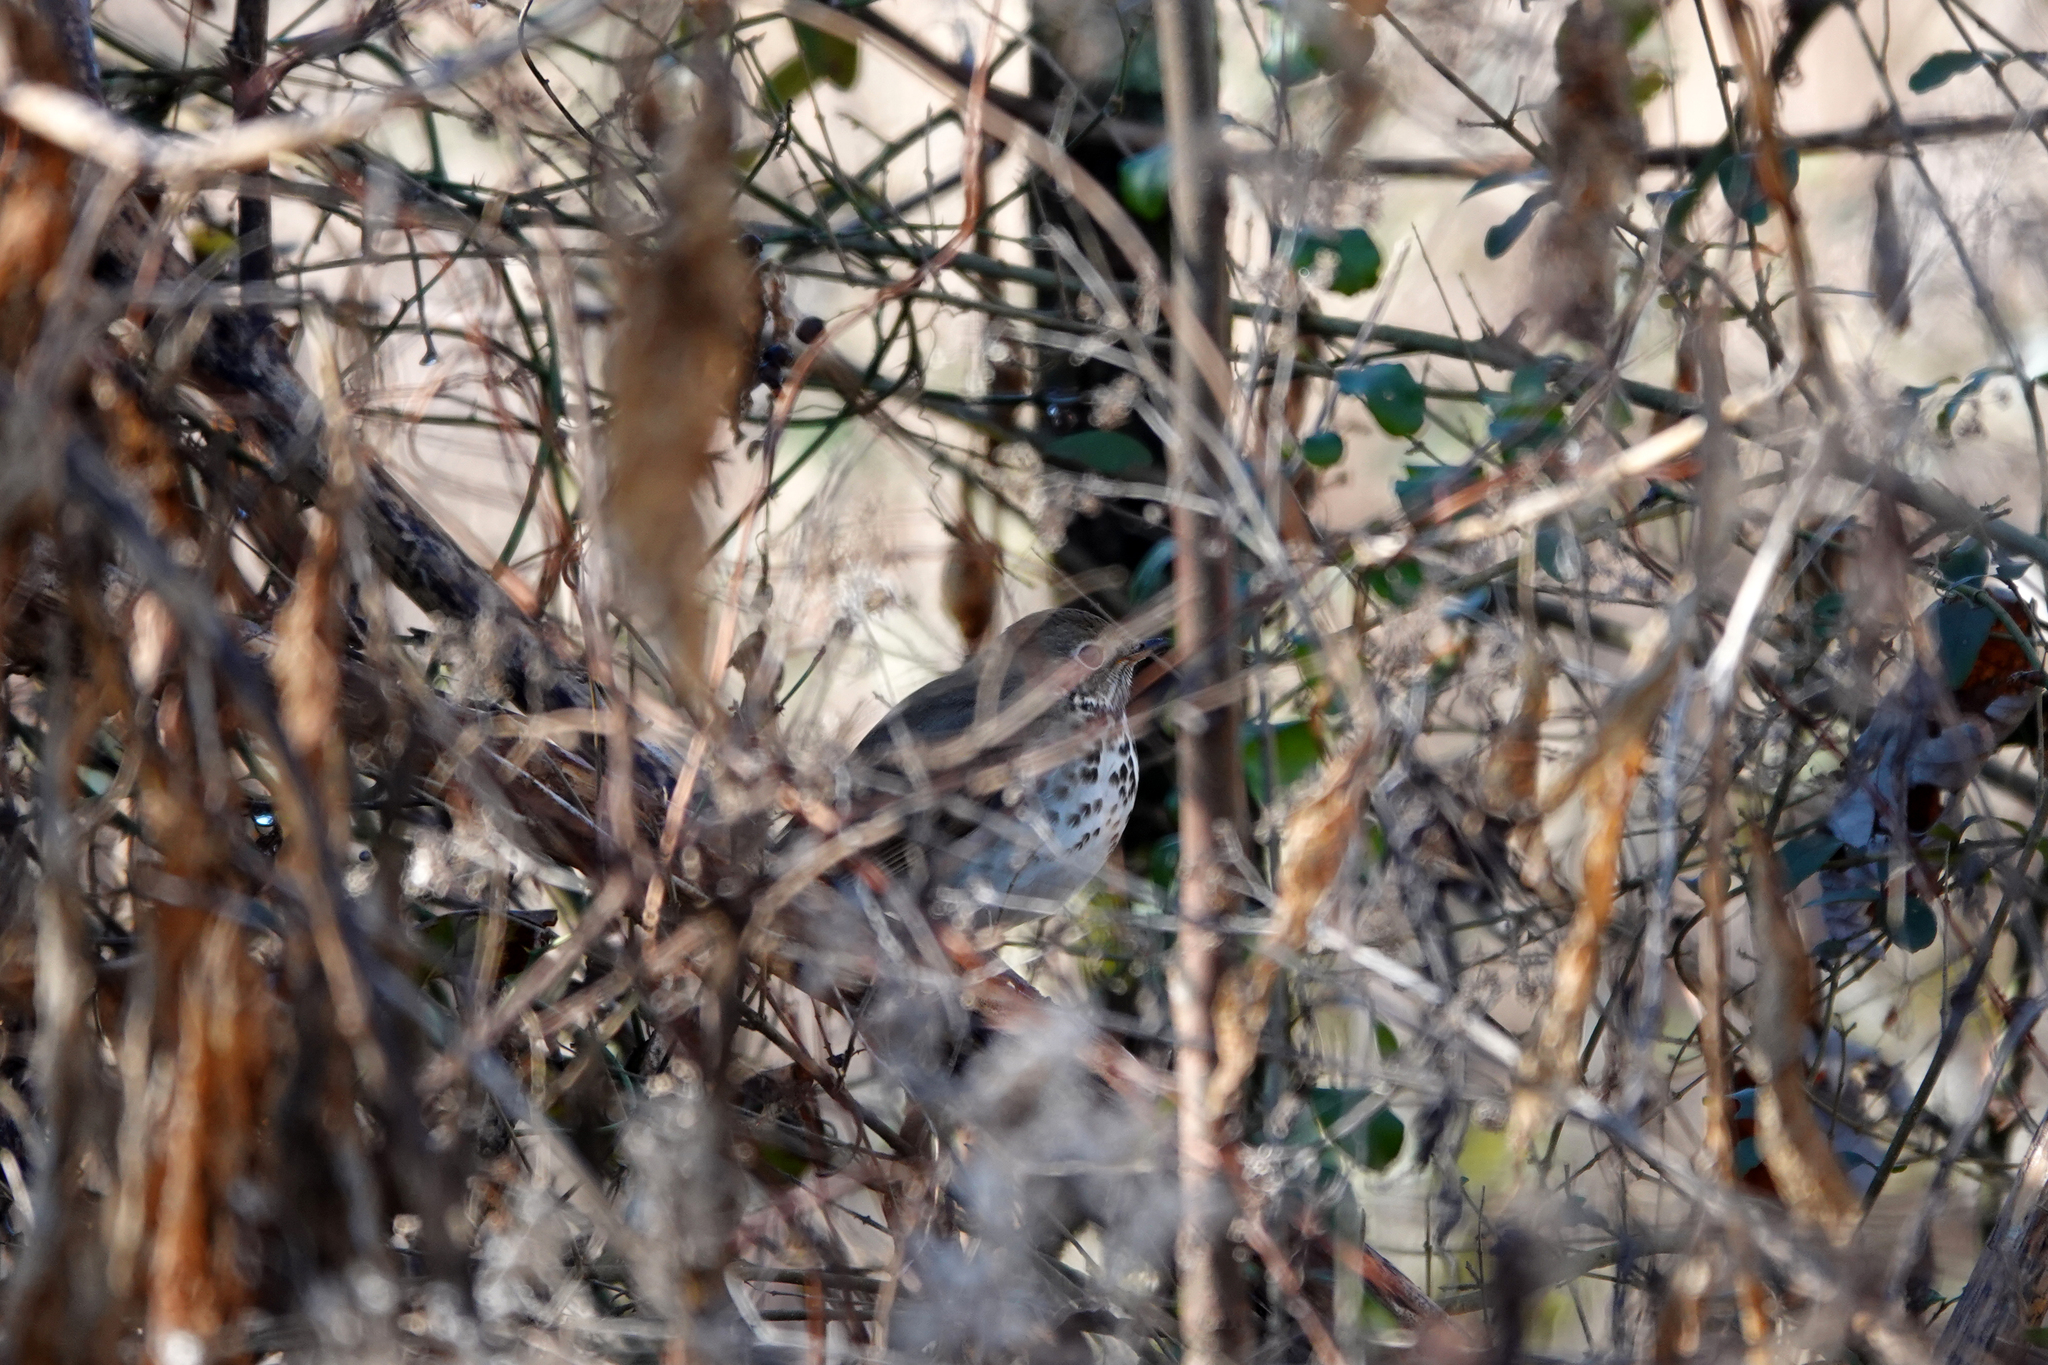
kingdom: Animalia
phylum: Chordata
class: Aves
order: Passeriformes
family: Turdidae
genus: Catharus
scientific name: Catharus guttatus
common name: Hermit thrush
